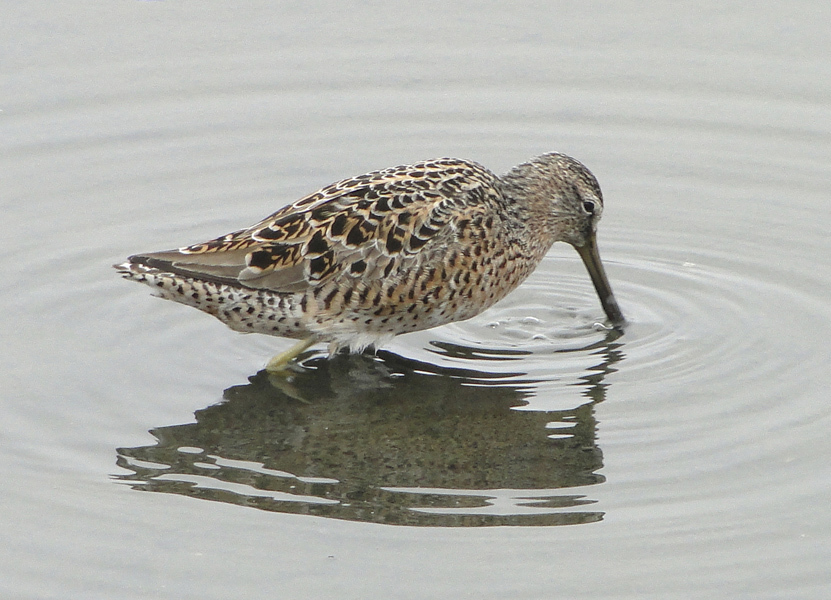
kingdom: Animalia
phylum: Chordata
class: Aves
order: Charadriiformes
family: Scolopacidae
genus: Limnodromus
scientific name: Limnodromus griseus
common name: Short-billed dowitcher
